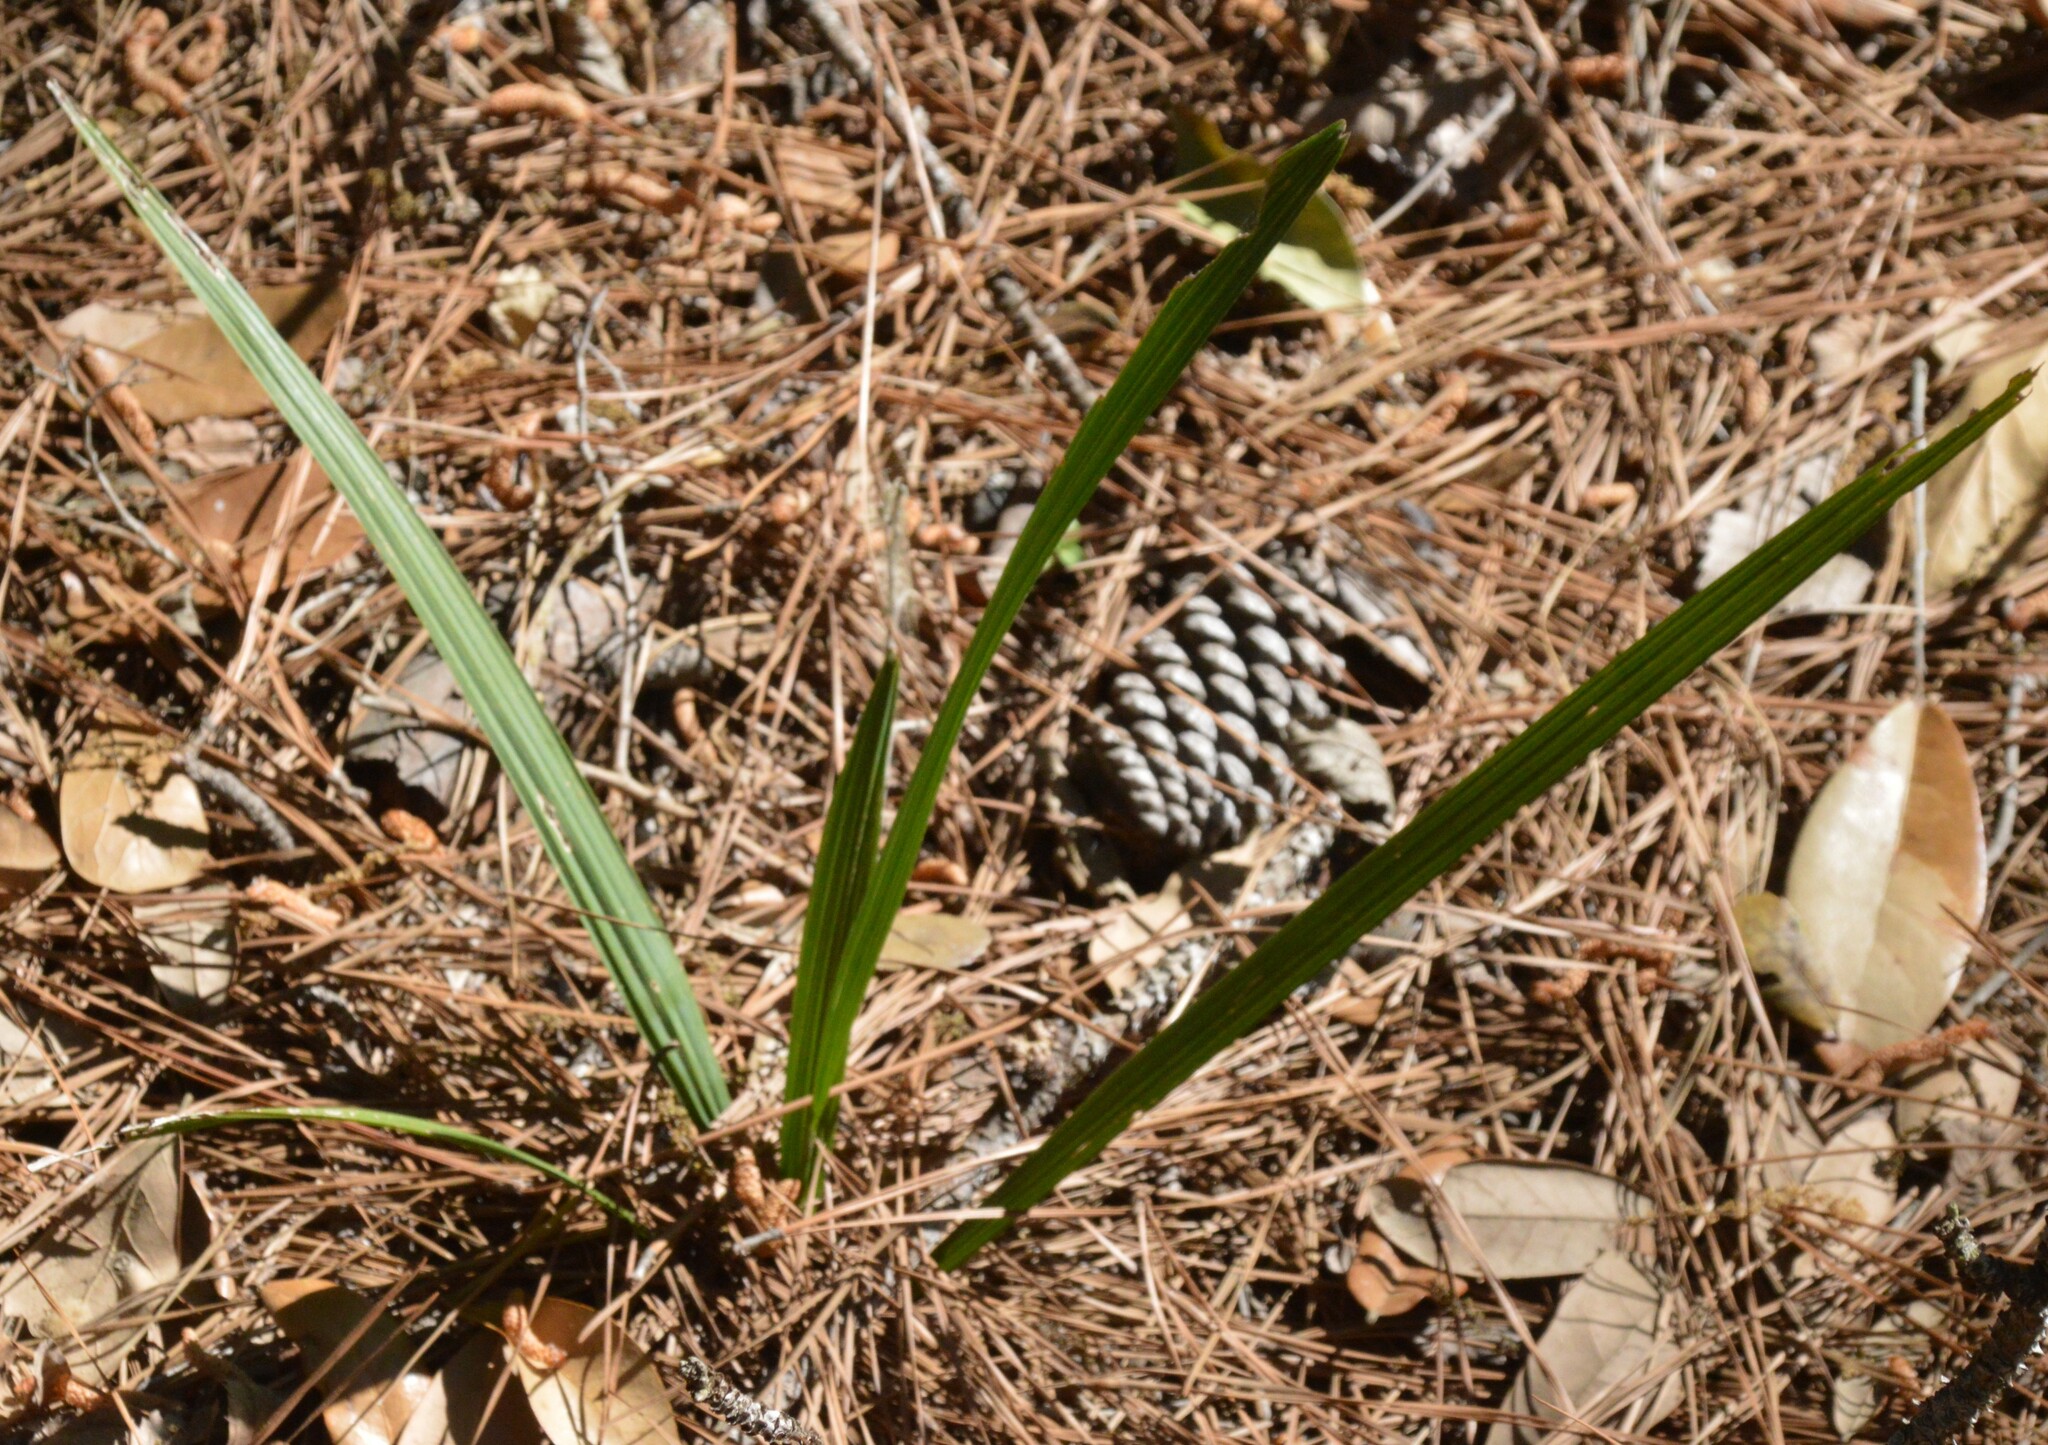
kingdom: Plantae
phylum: Tracheophyta
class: Liliopsida
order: Arecales
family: Arecaceae
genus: Sabal
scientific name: Sabal minor
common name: Dwarf palmetto
